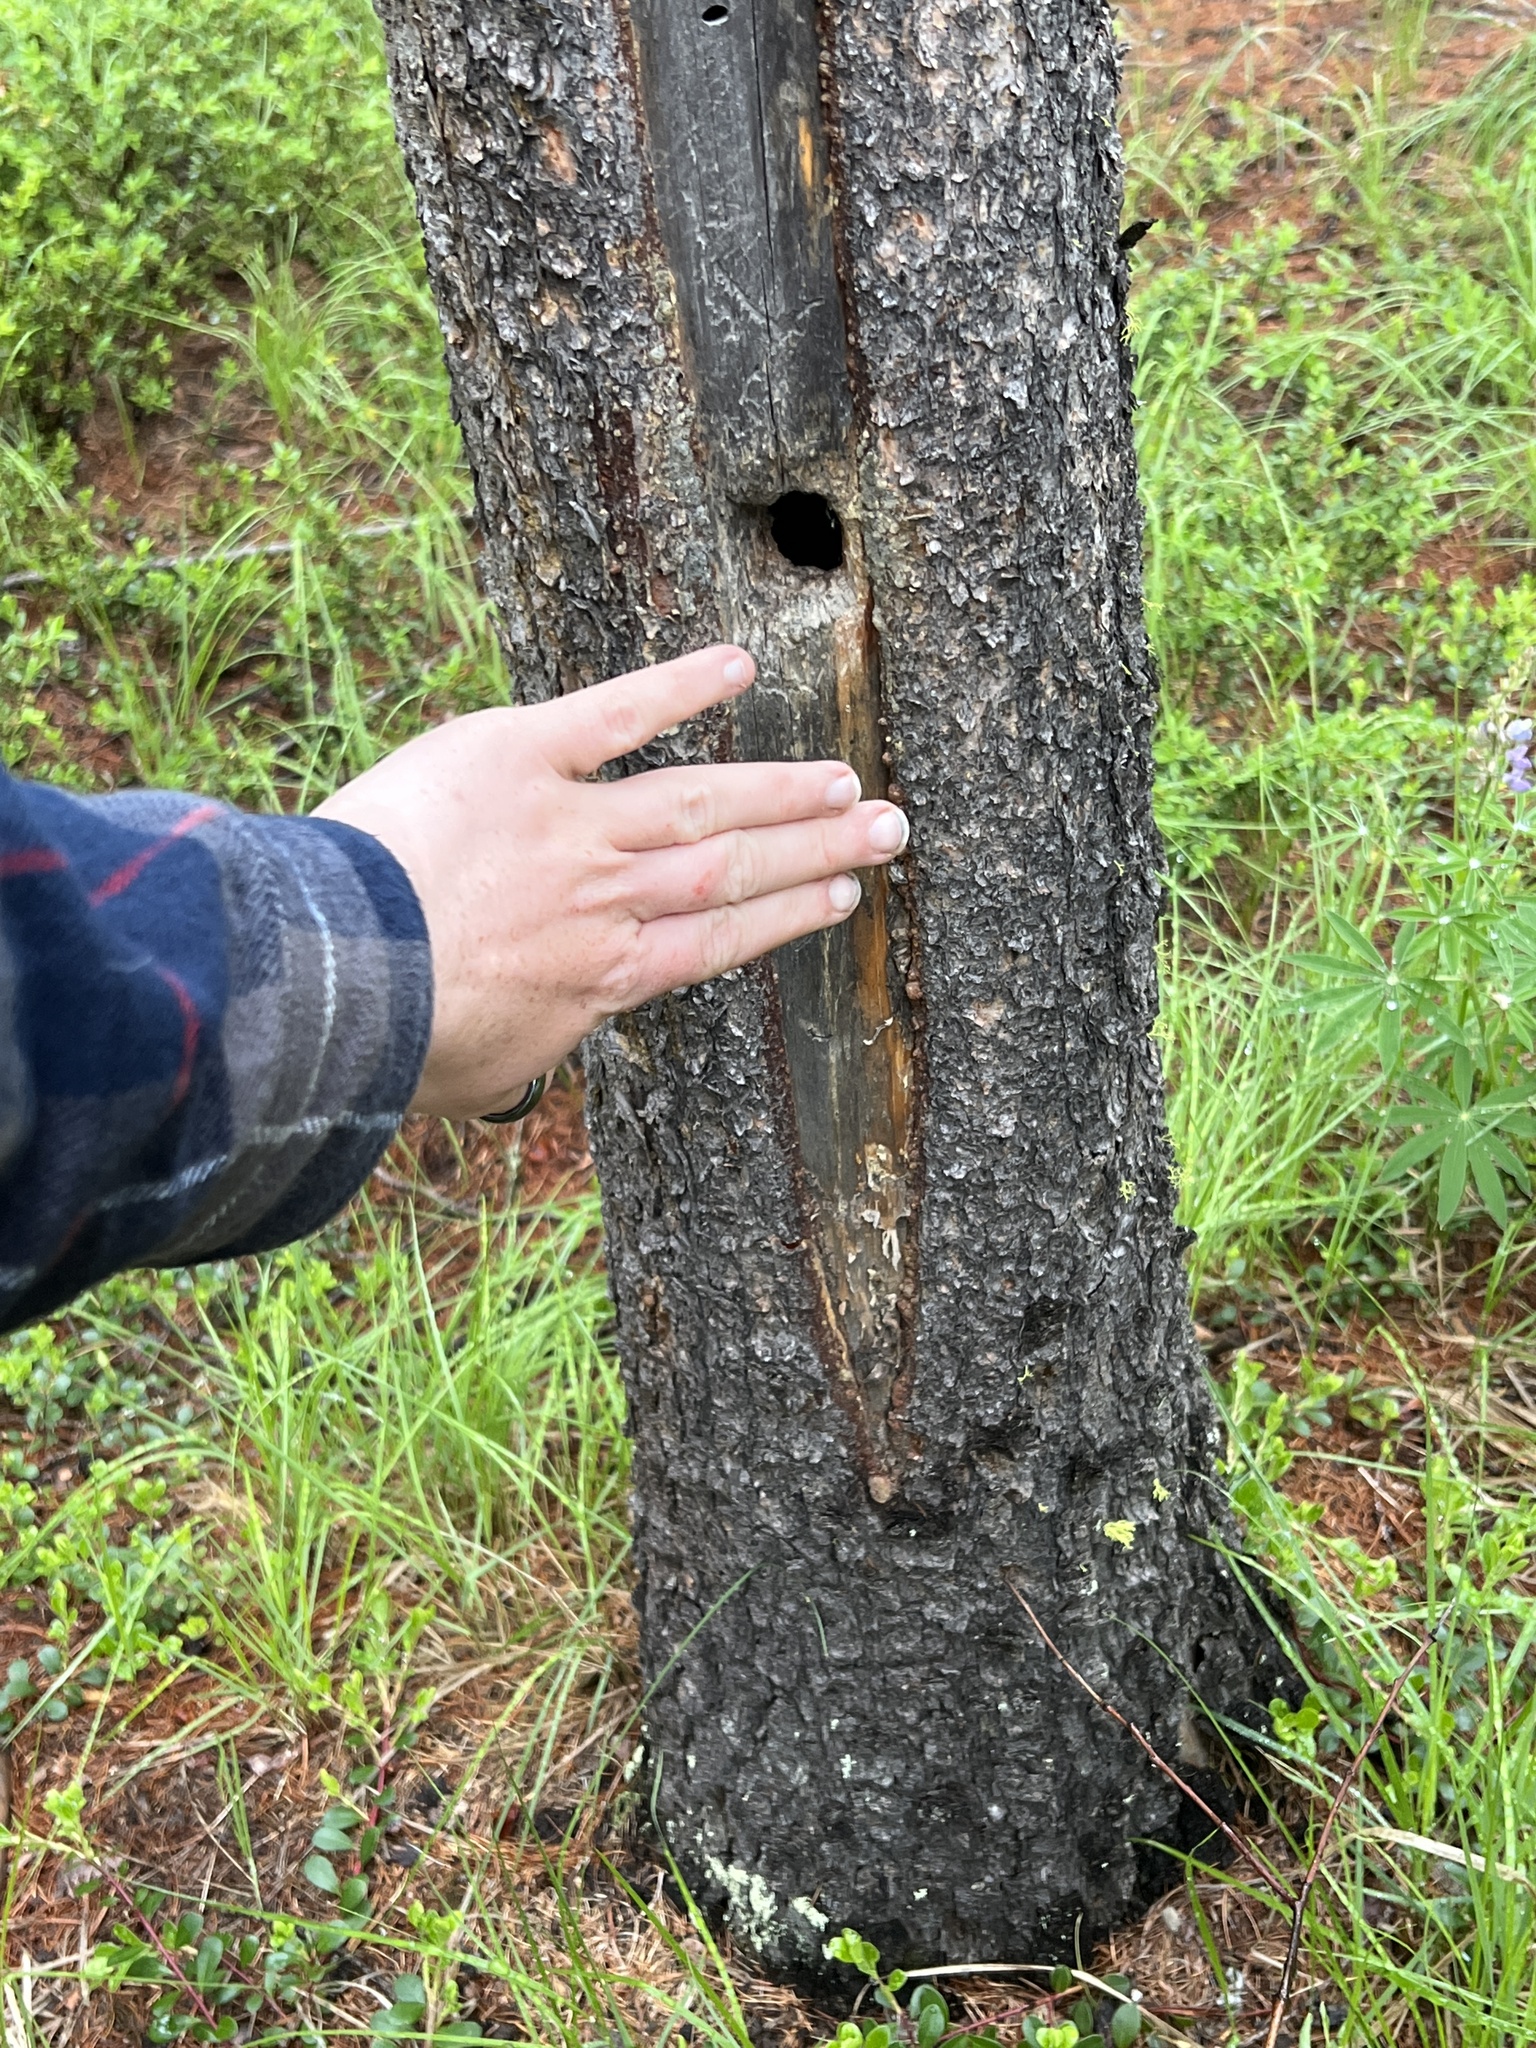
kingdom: Animalia
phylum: Chordata
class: Aves
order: Passeriformes
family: Paridae
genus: Poecile
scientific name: Poecile gambeli
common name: Mountain chickadee
